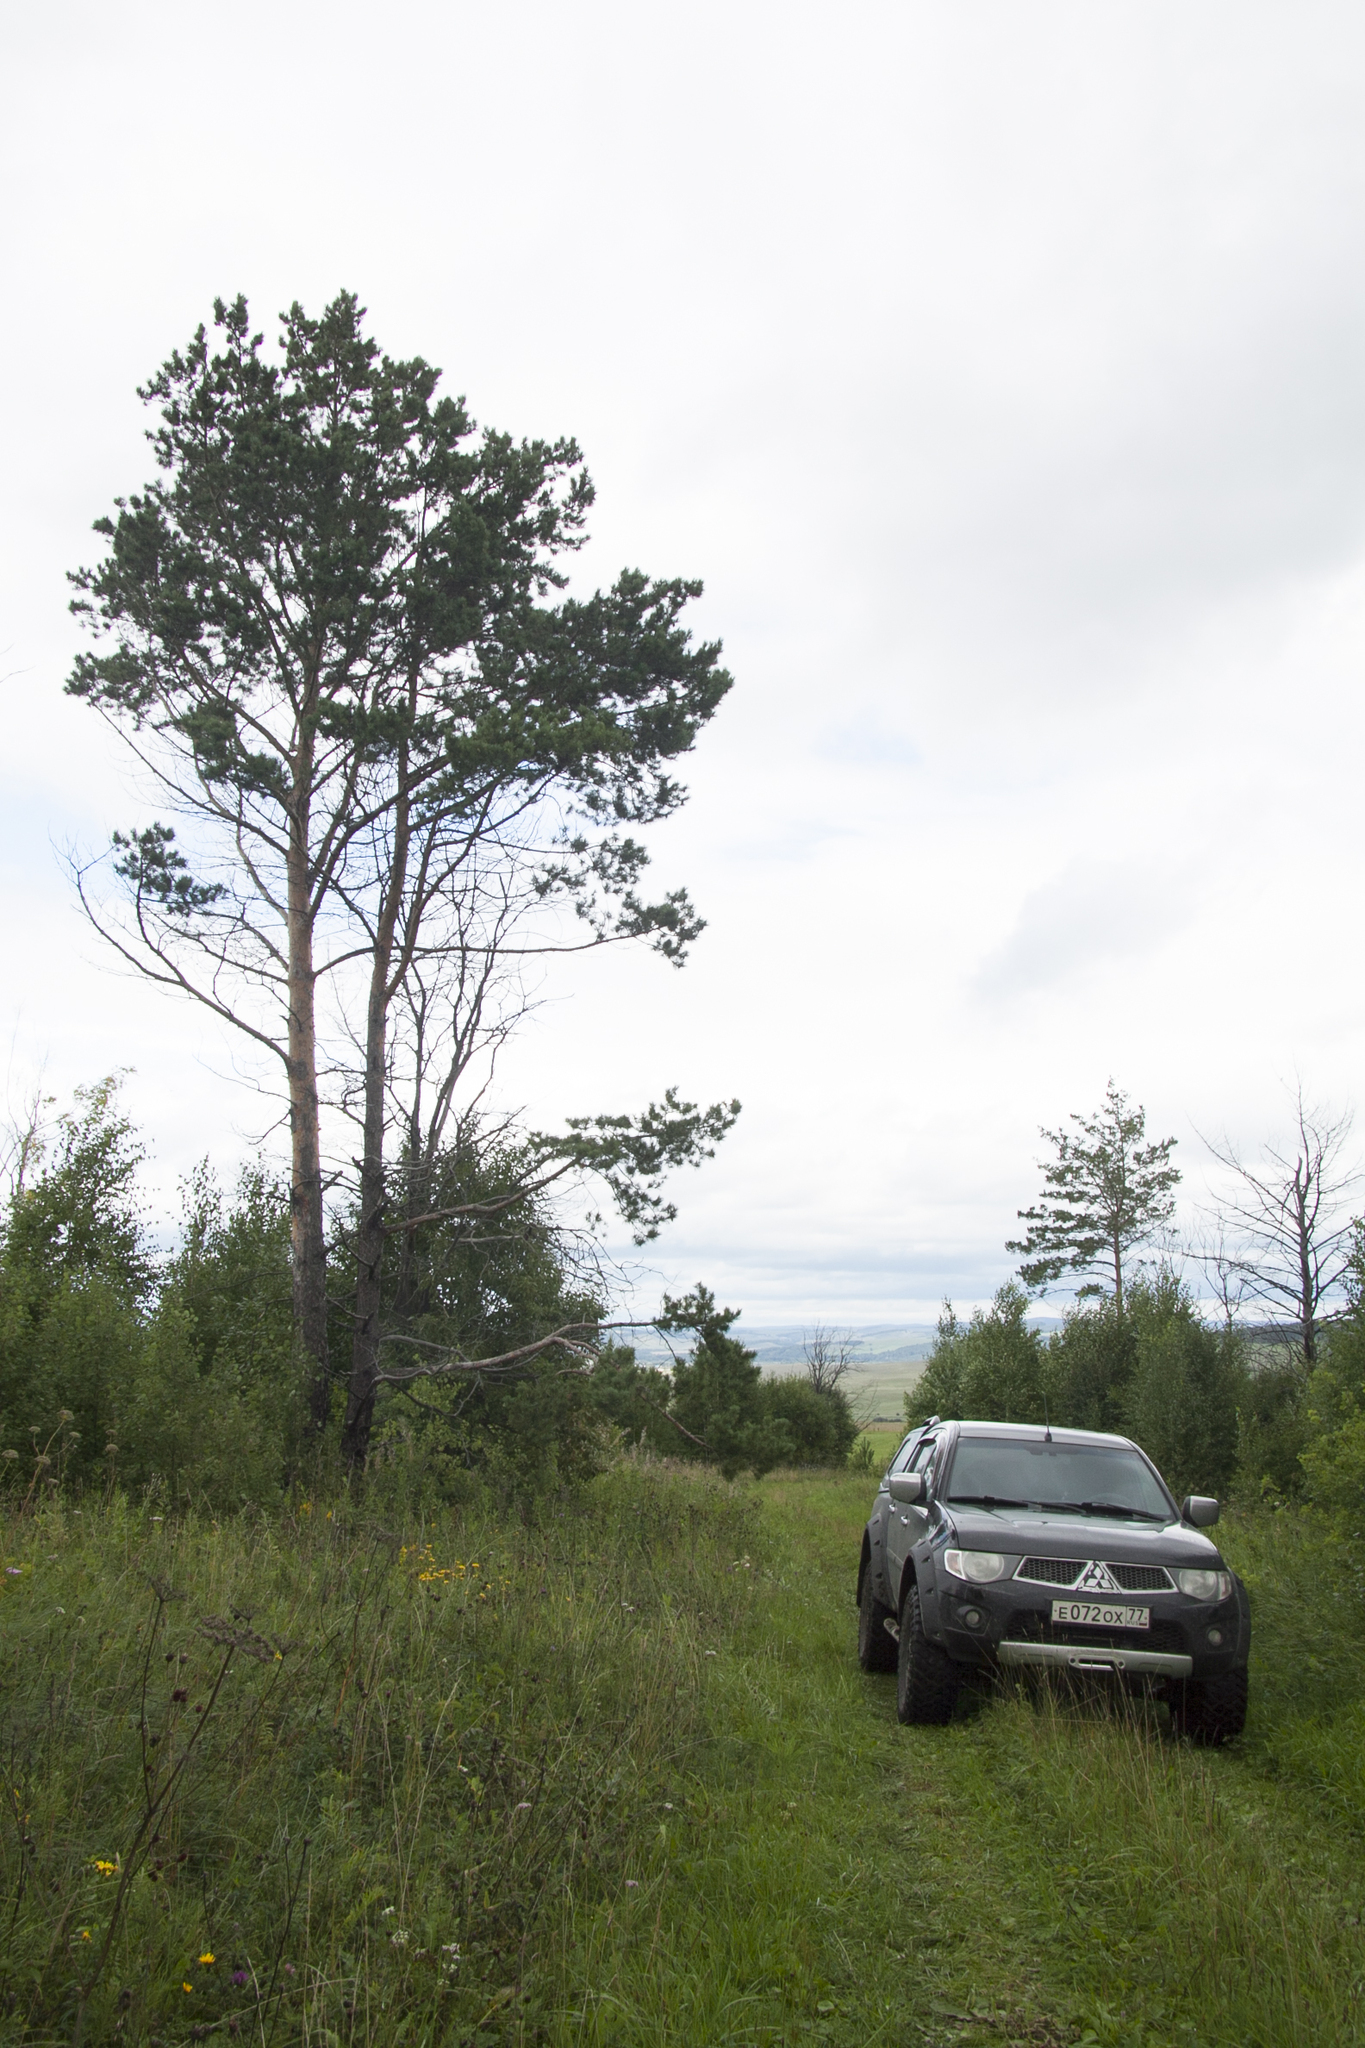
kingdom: Plantae
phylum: Tracheophyta
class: Pinopsida
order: Pinales
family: Pinaceae
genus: Pinus
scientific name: Pinus sylvestris
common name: Scots pine
